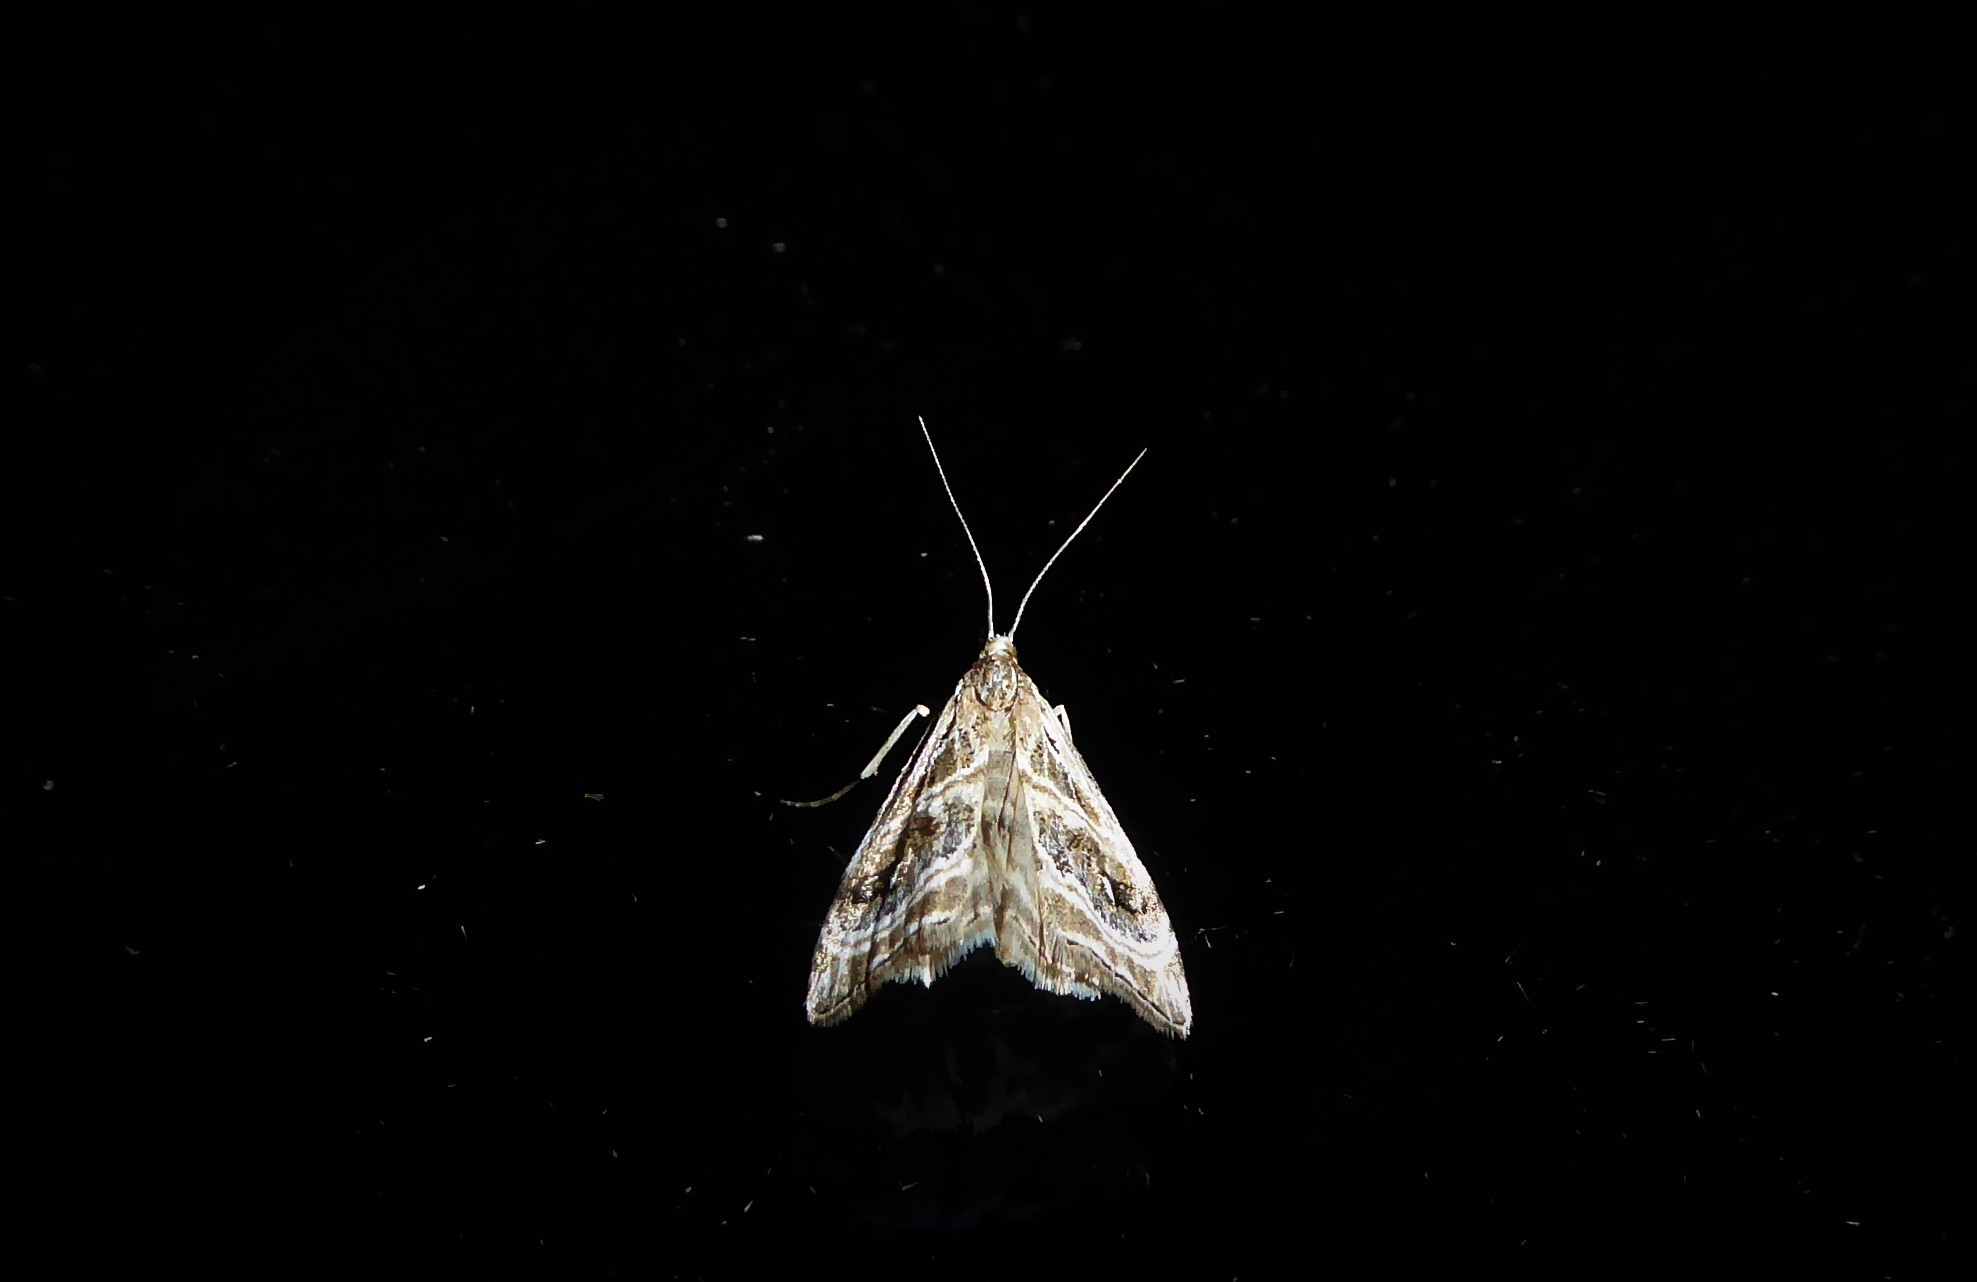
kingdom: Animalia
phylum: Arthropoda
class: Insecta
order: Lepidoptera
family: Crambidae
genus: Gadira
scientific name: Gadira acerella
